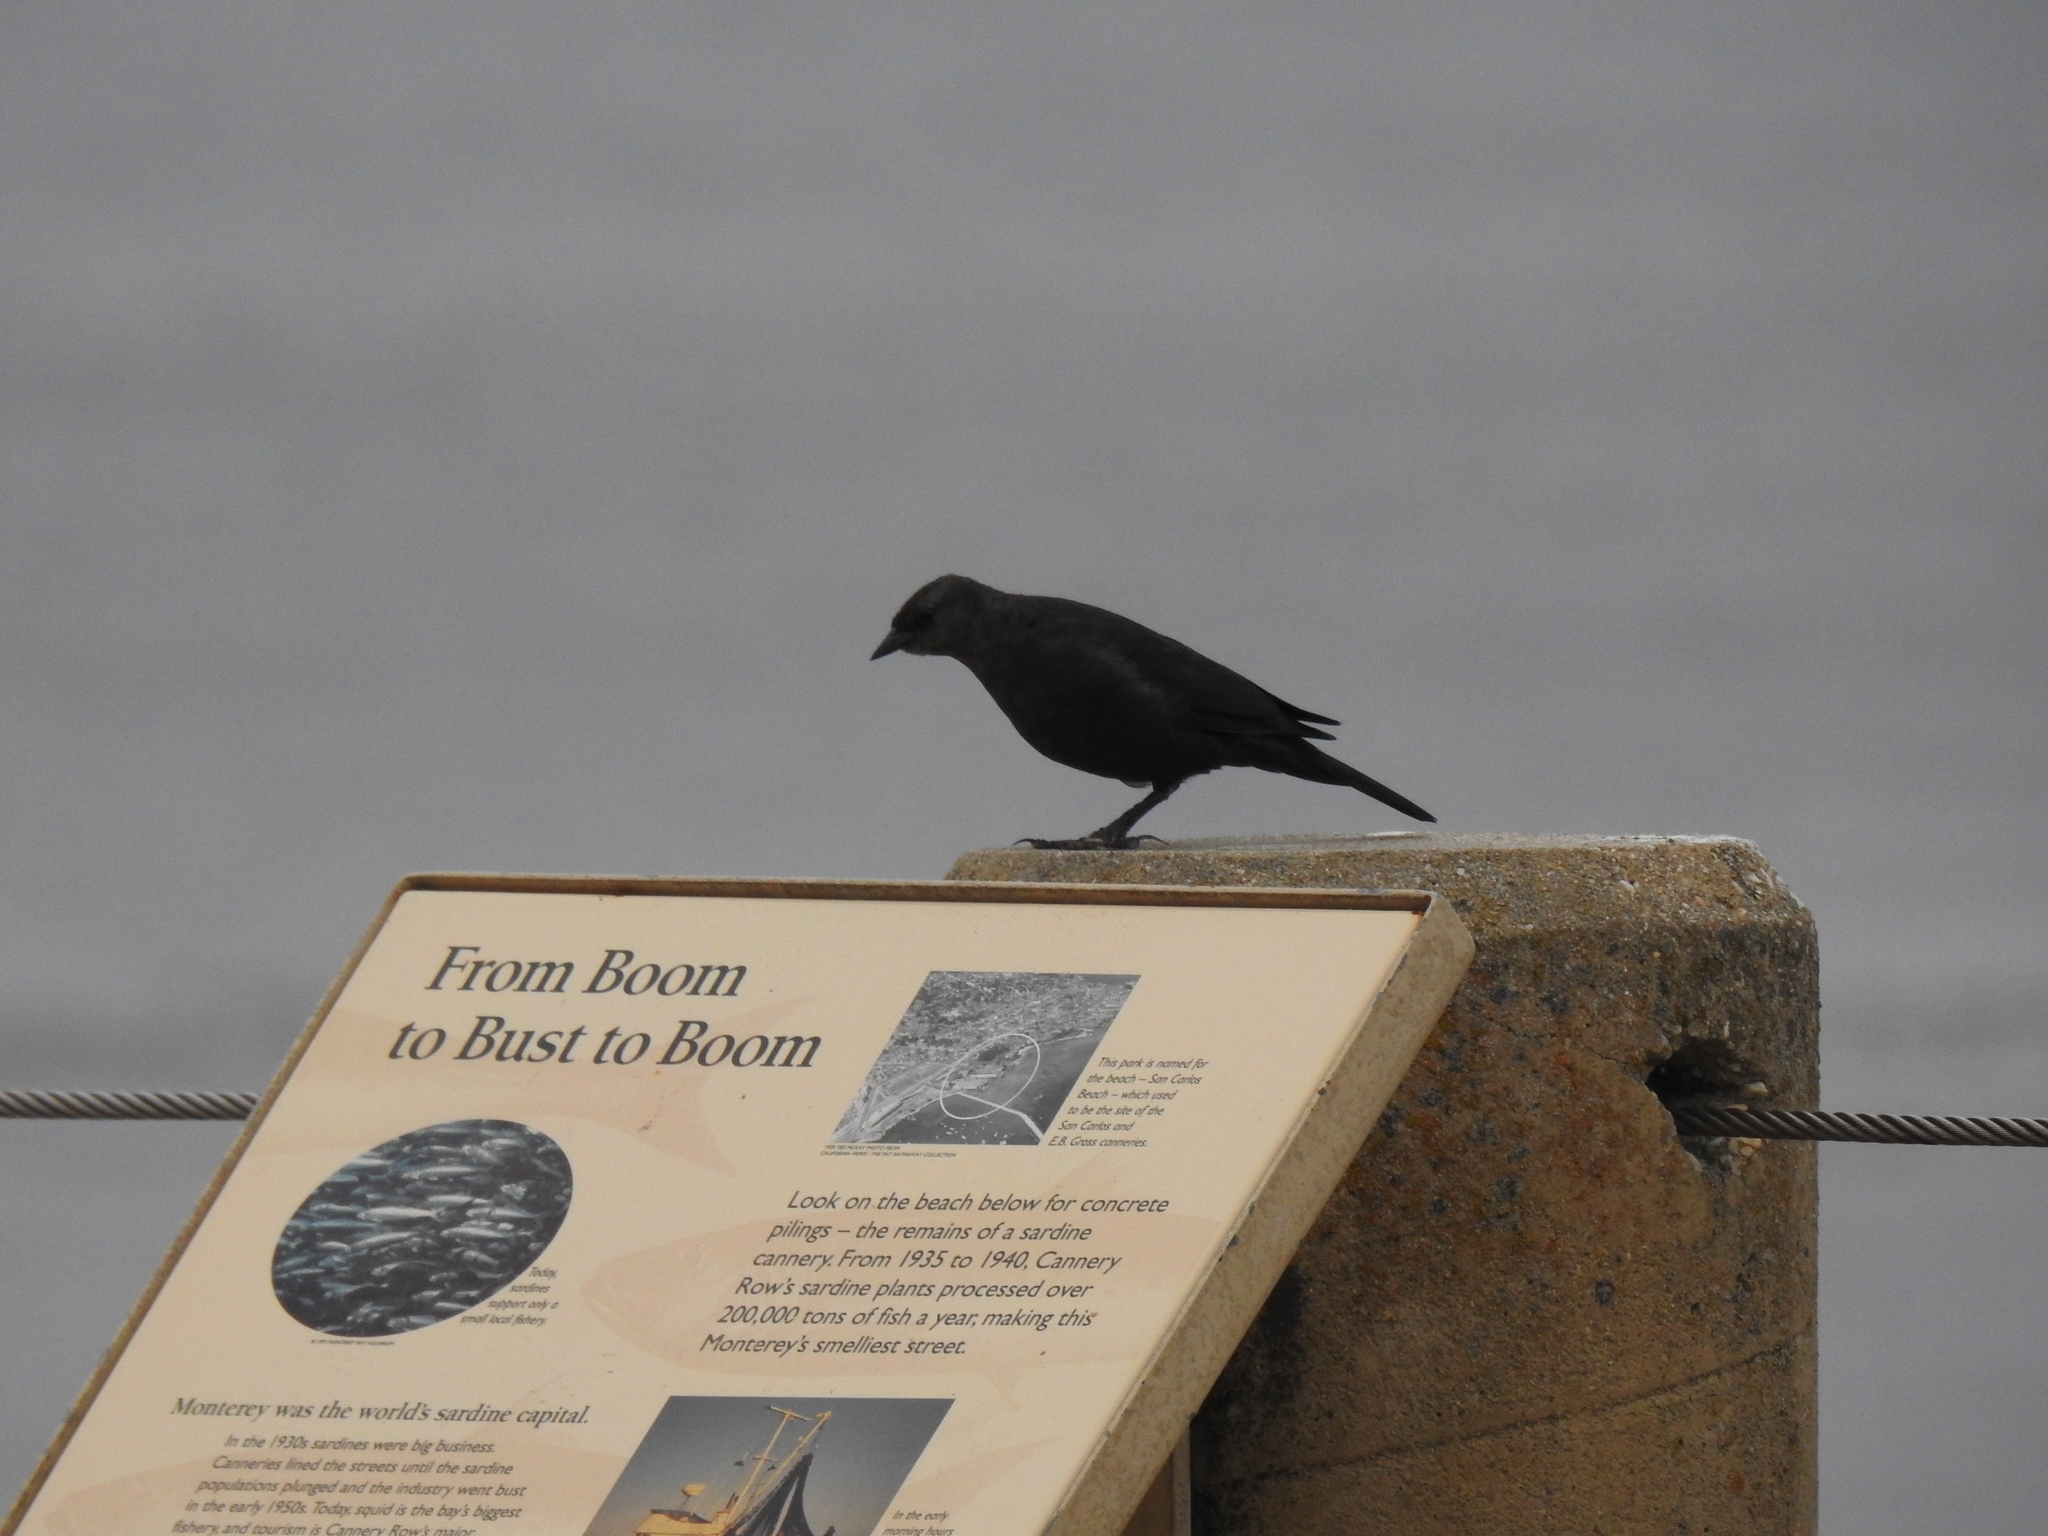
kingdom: Animalia
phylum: Chordata
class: Aves
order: Passeriformes
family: Icteridae
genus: Euphagus
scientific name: Euphagus cyanocephalus
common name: Brewer's blackbird
